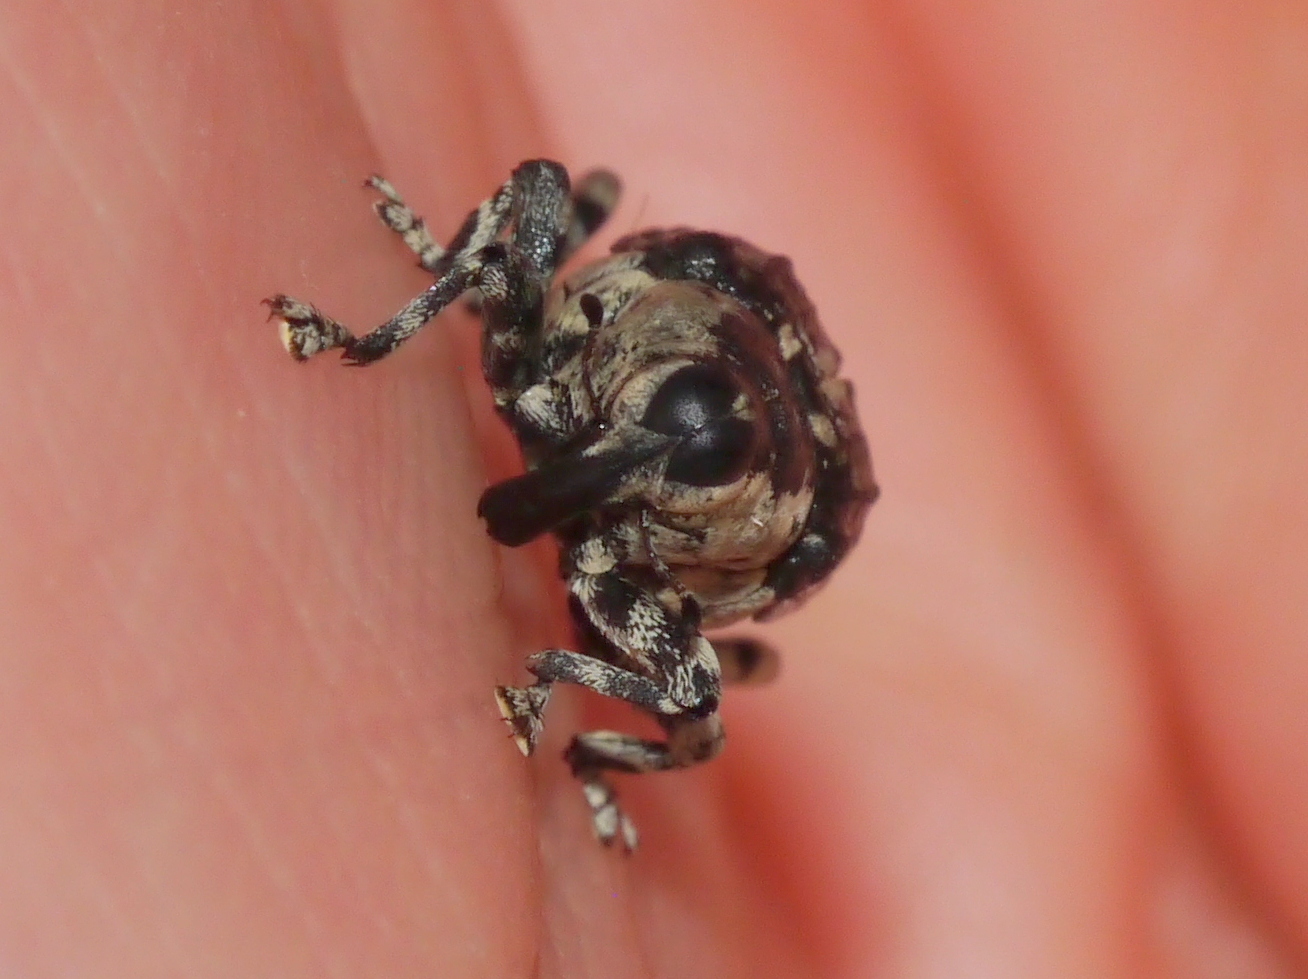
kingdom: Animalia
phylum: Arthropoda
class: Insecta
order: Coleoptera
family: Curculionidae
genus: Peltophorus
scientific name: Peltophorus polymitus
